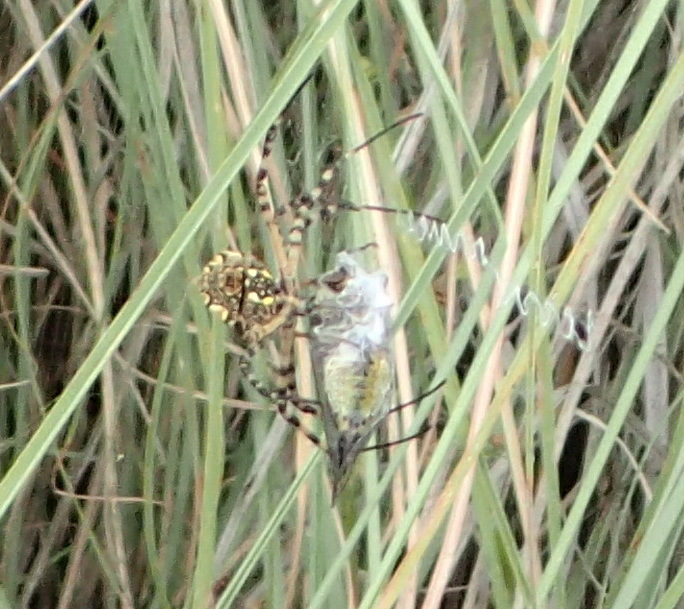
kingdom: Animalia
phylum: Arthropoda
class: Arachnida
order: Araneae
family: Araneidae
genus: Argiope
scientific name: Argiope australis
